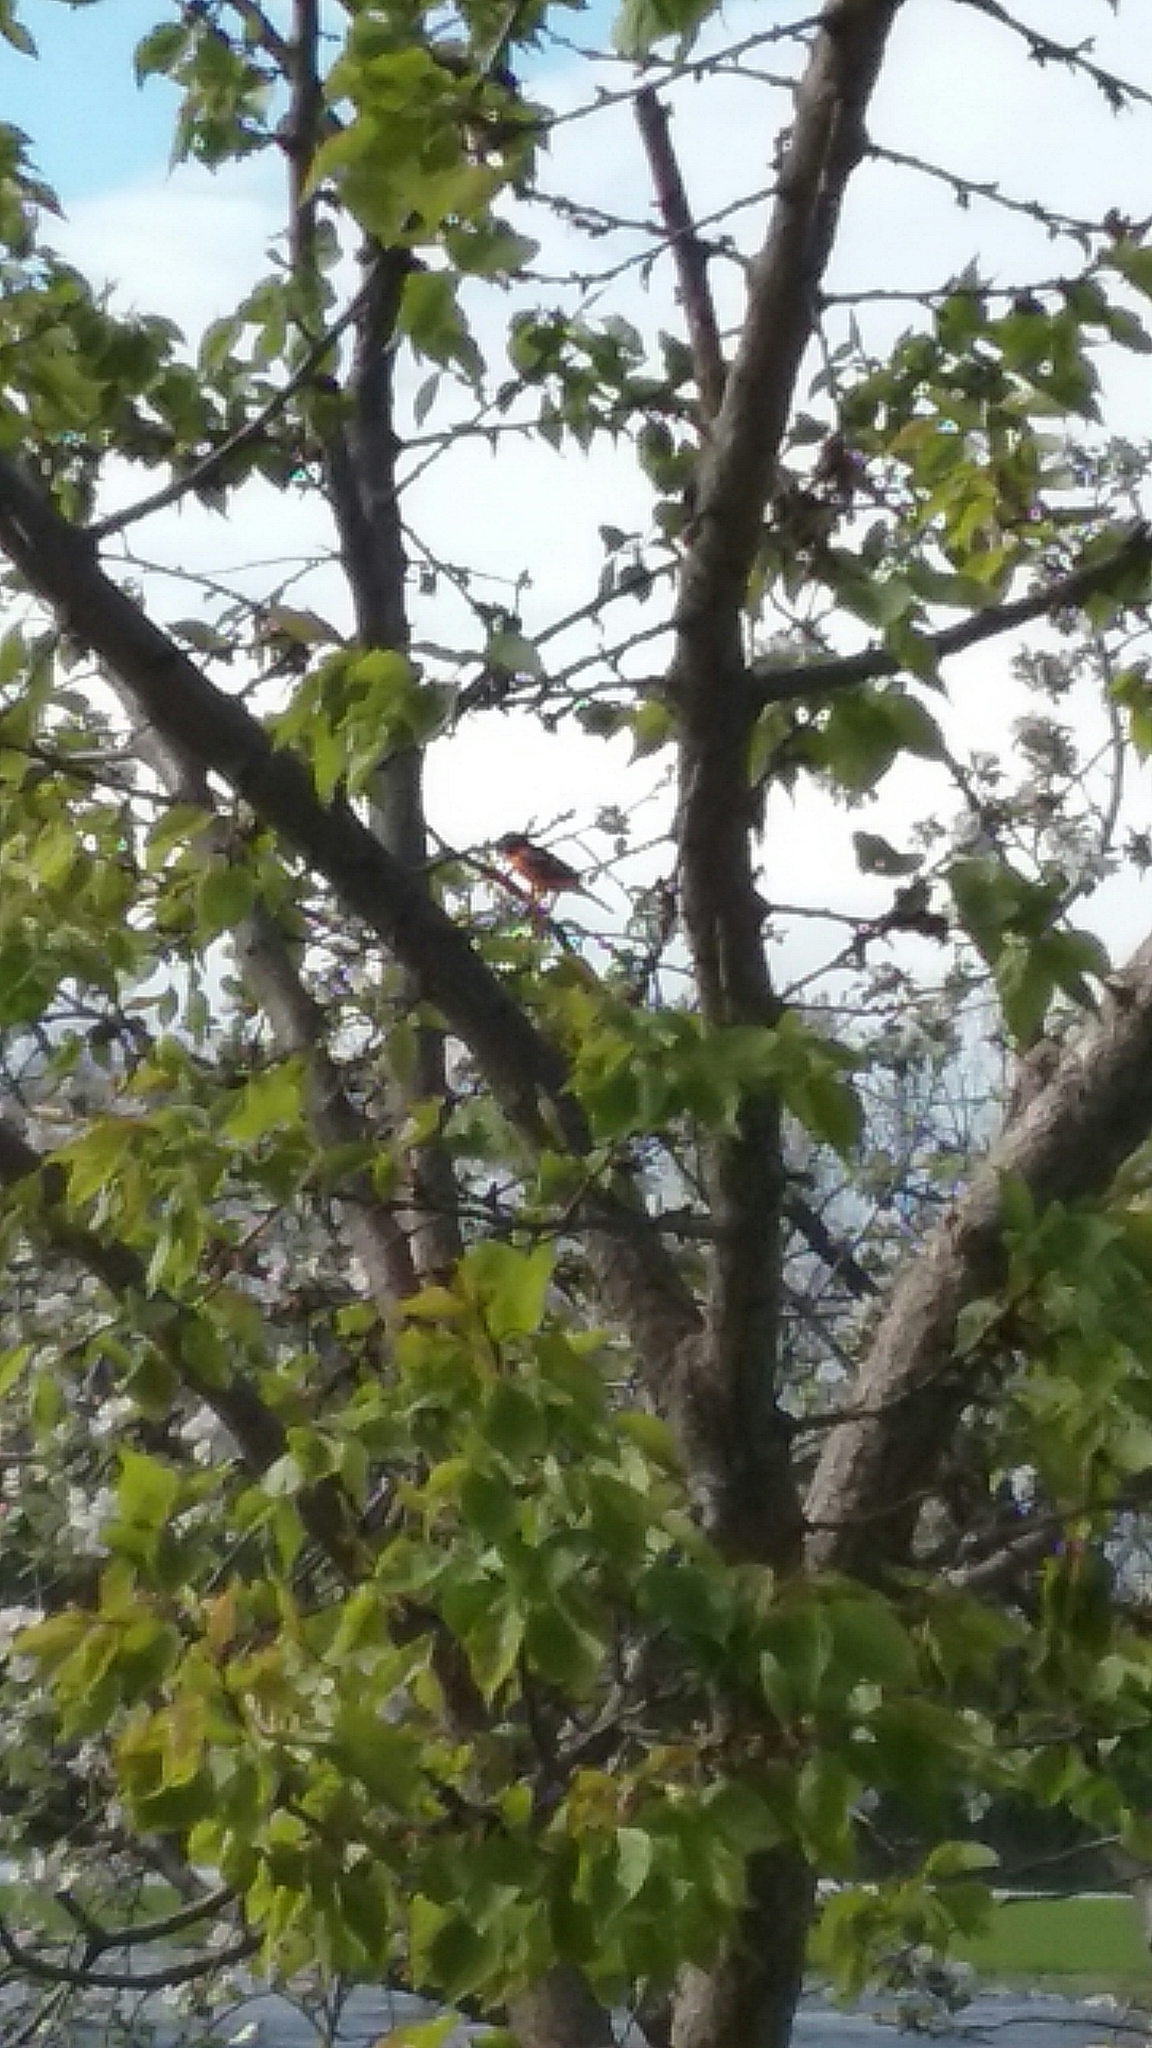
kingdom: Animalia
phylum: Chordata
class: Aves
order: Passeriformes
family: Icteridae
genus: Icterus
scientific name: Icterus galbula
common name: Baltimore oriole
